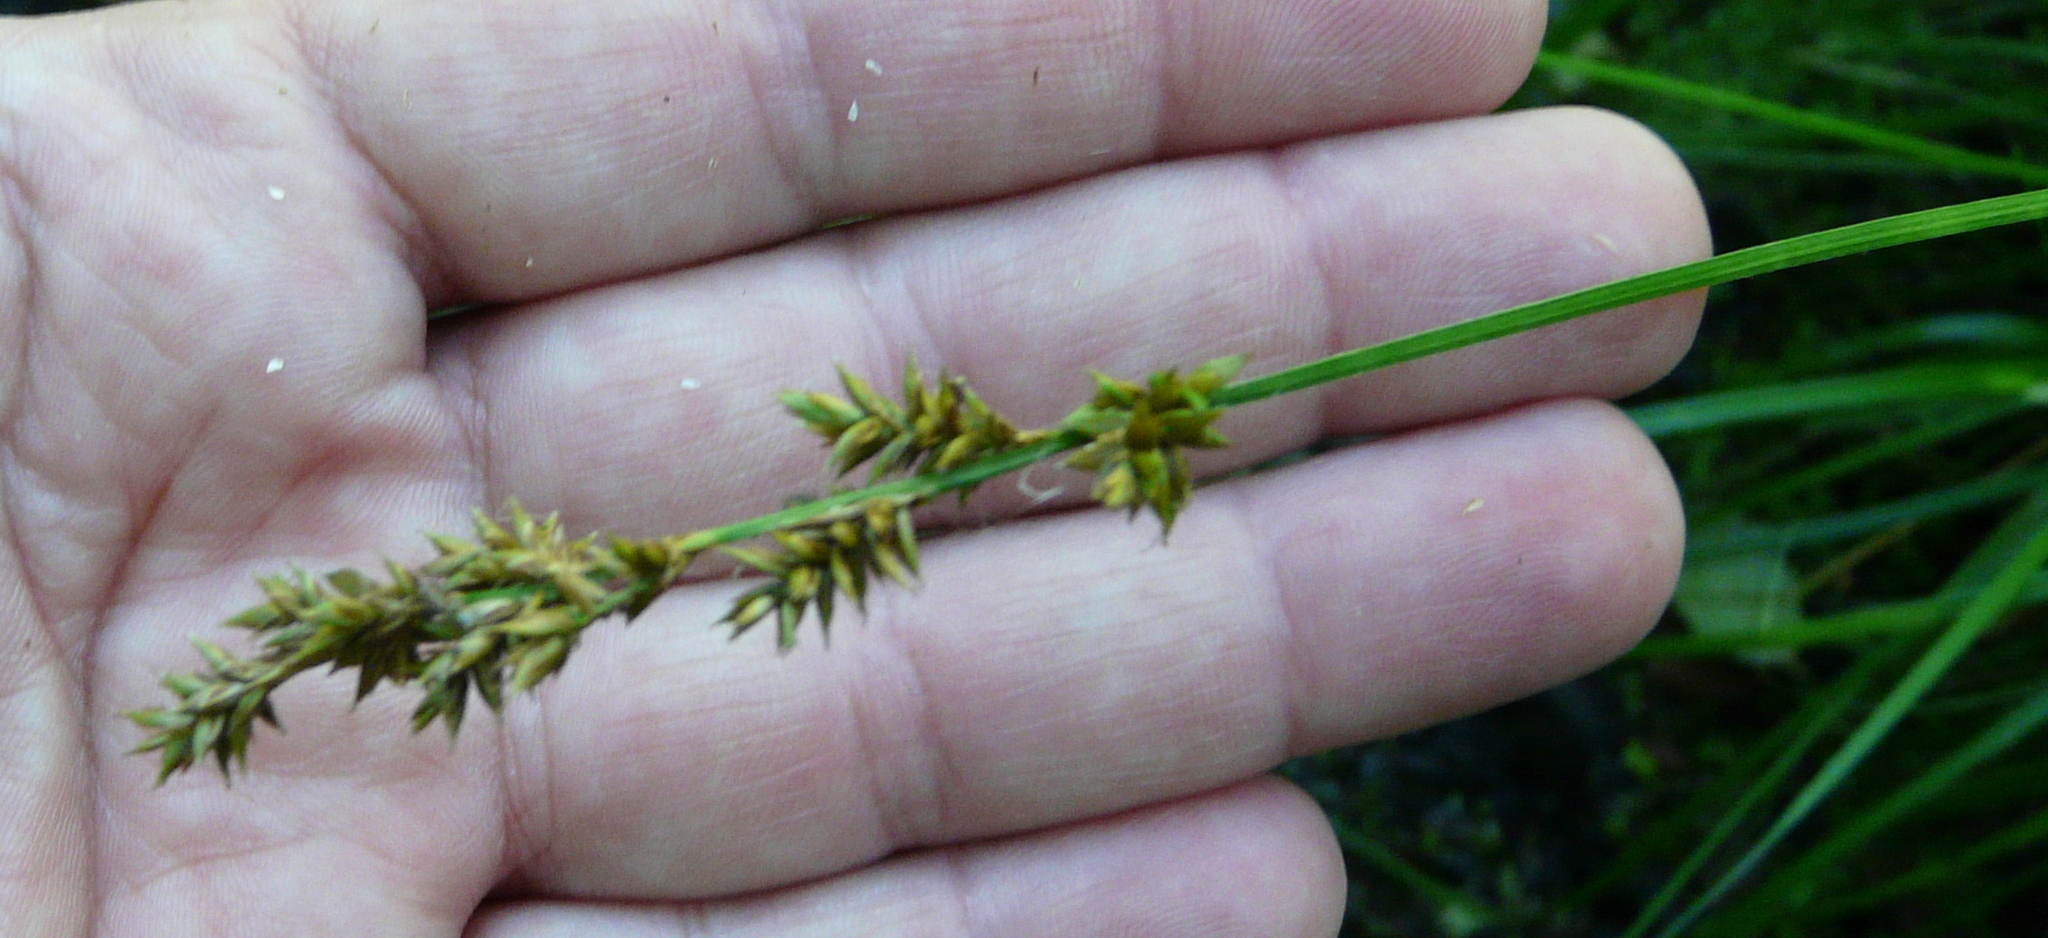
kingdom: Plantae
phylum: Tracheophyta
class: Liliopsida
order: Poales
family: Cyperaceae
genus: Carex
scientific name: Carex elongata
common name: Elongated sedge
